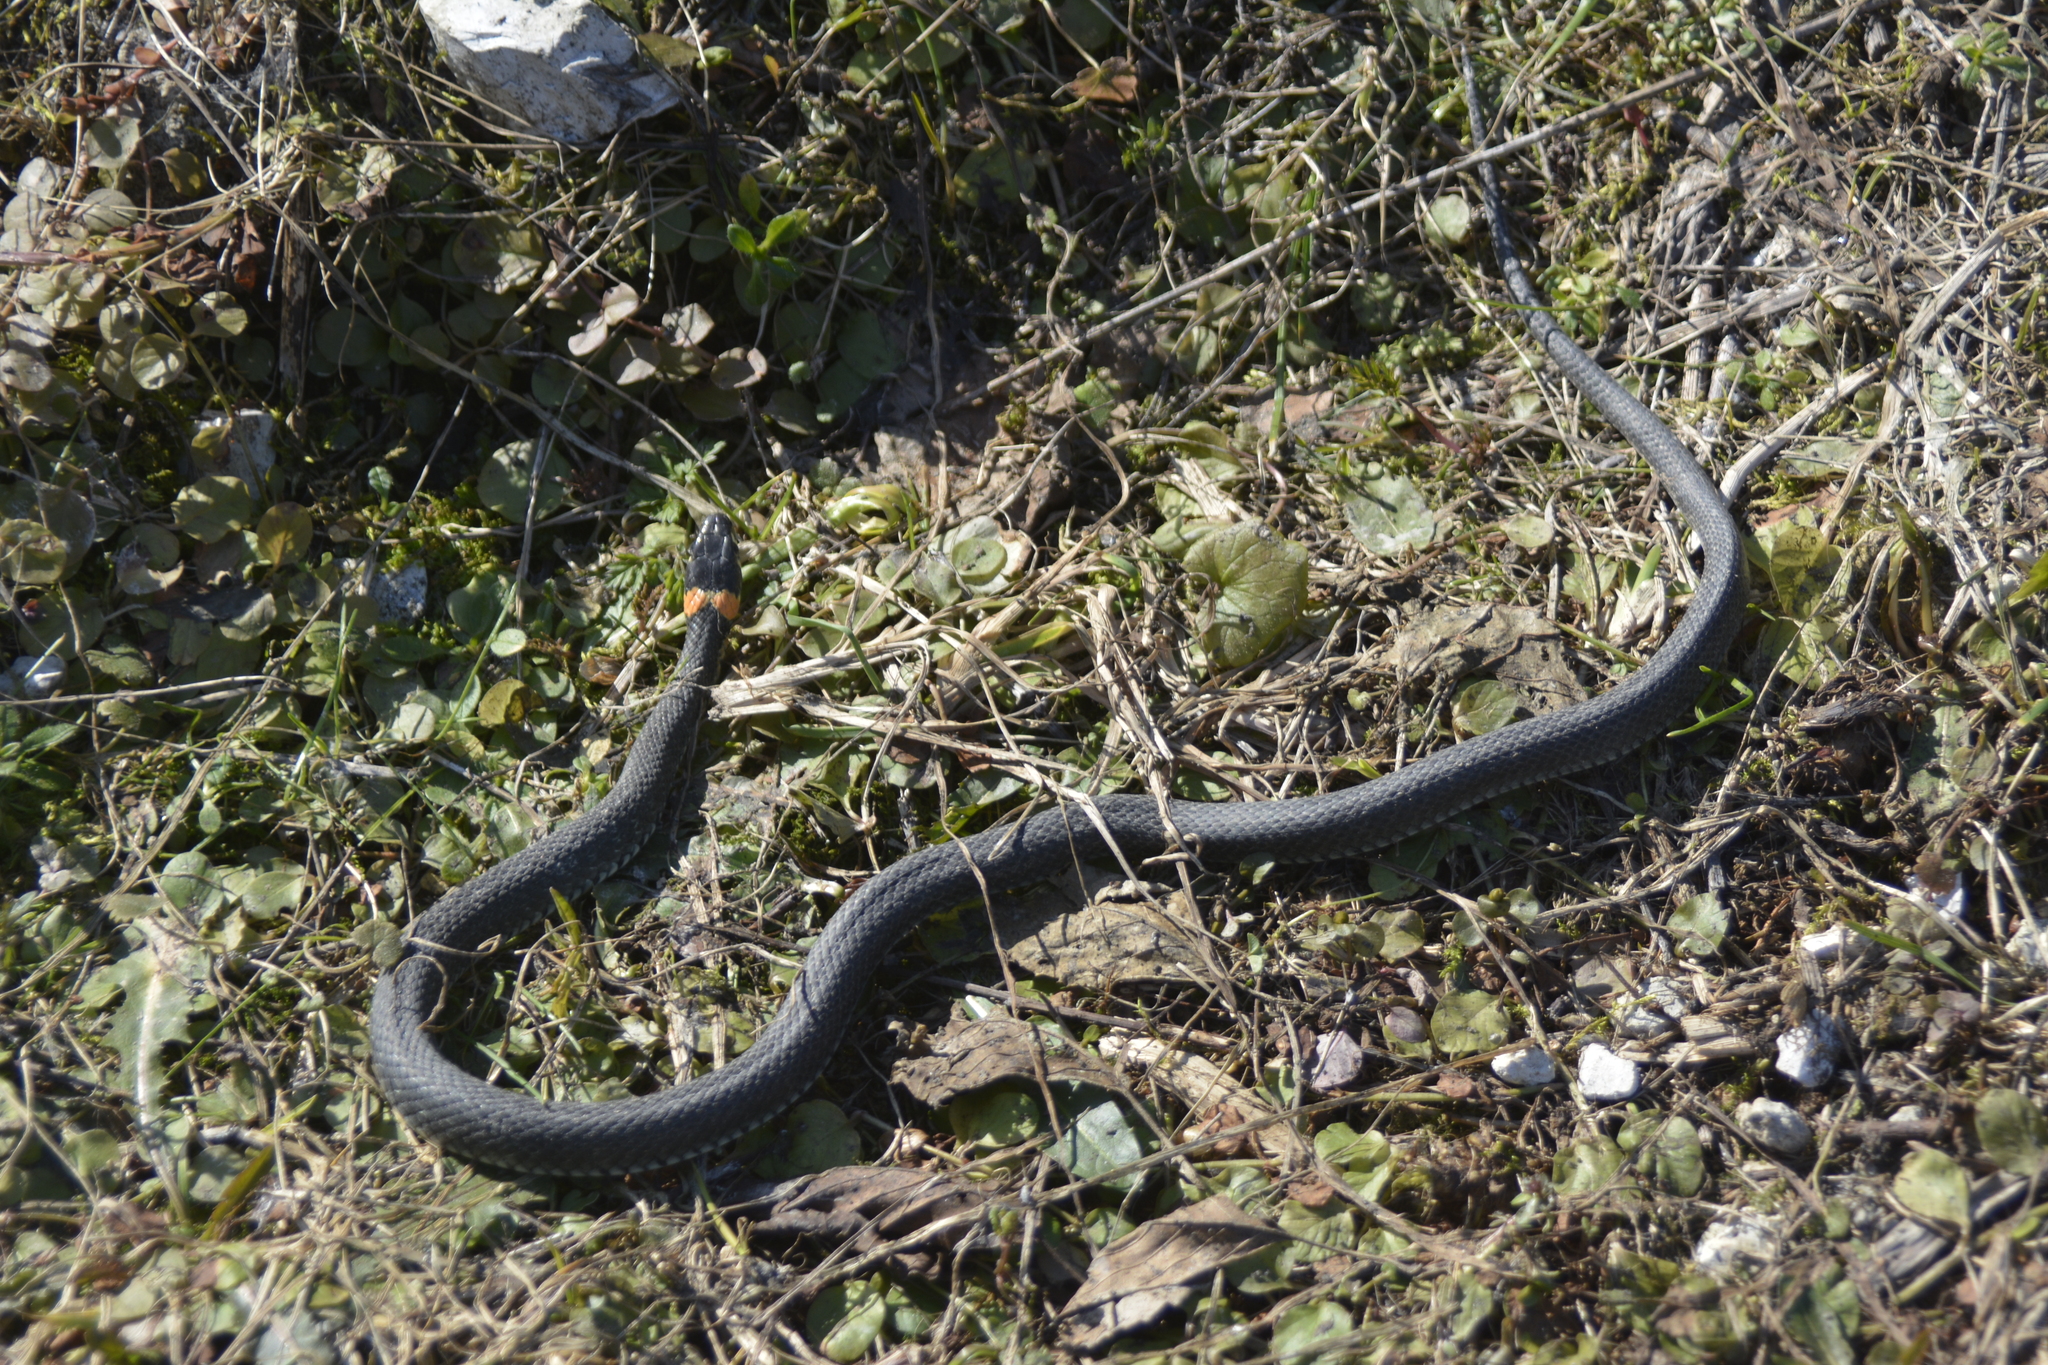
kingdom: Animalia
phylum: Chordata
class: Squamata
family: Colubridae
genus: Natrix
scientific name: Natrix natrix
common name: Grass snake
